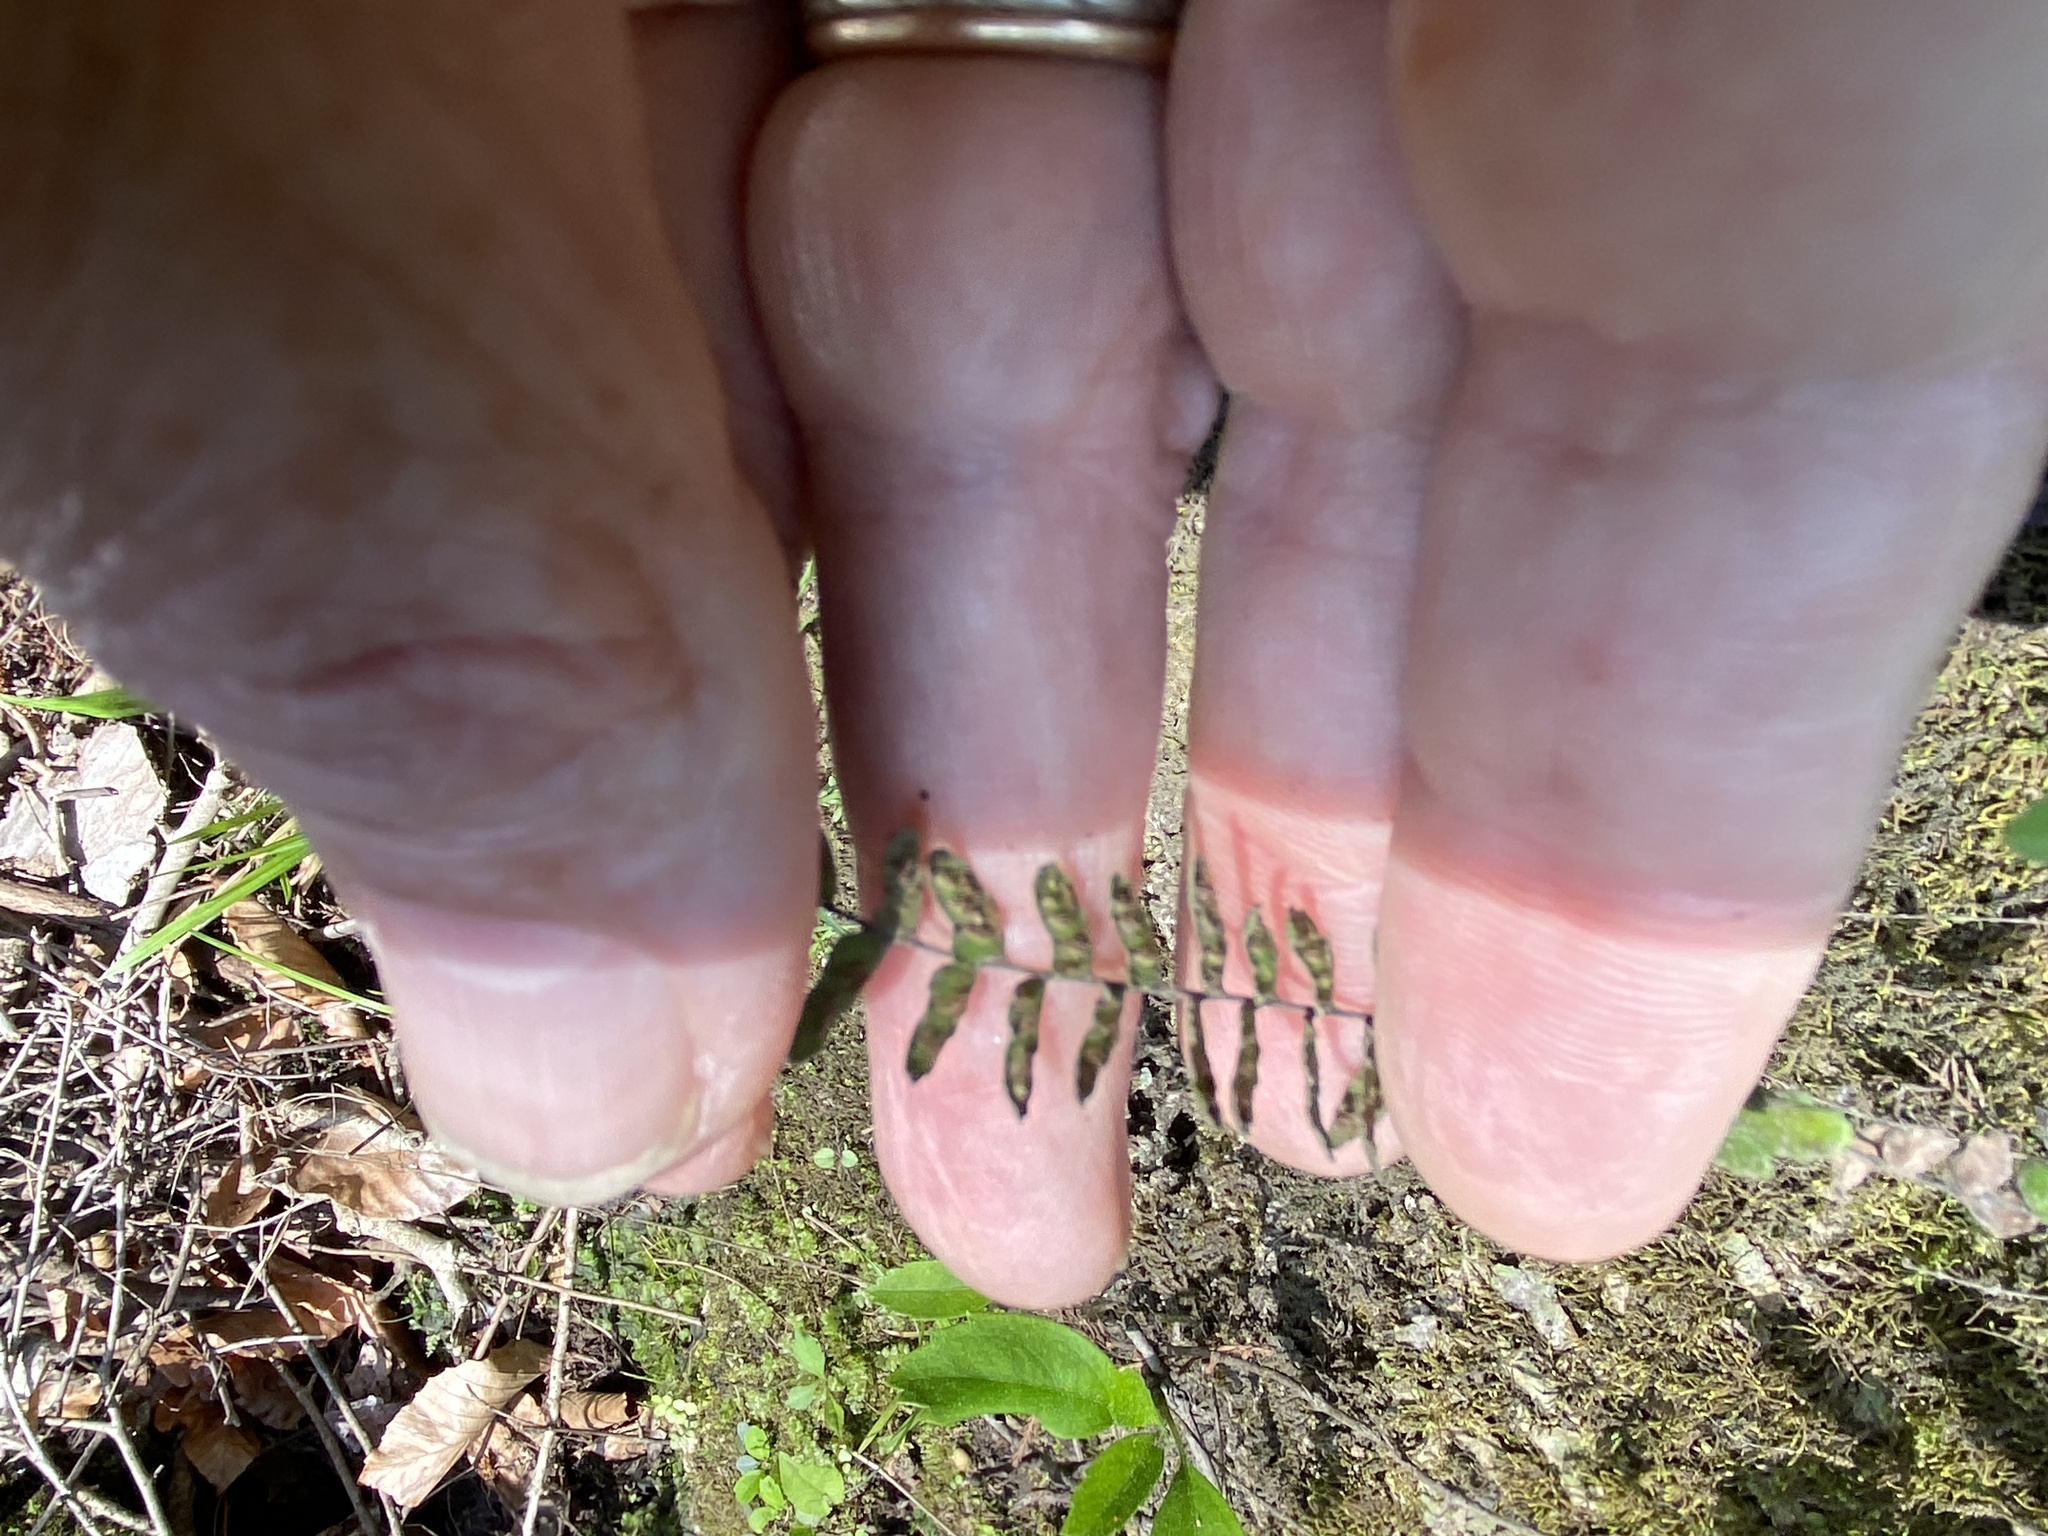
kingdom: Plantae
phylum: Tracheophyta
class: Polypodiopsida
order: Polypodiales
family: Aspleniaceae
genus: Asplenium
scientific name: Asplenium heteroresiliens
